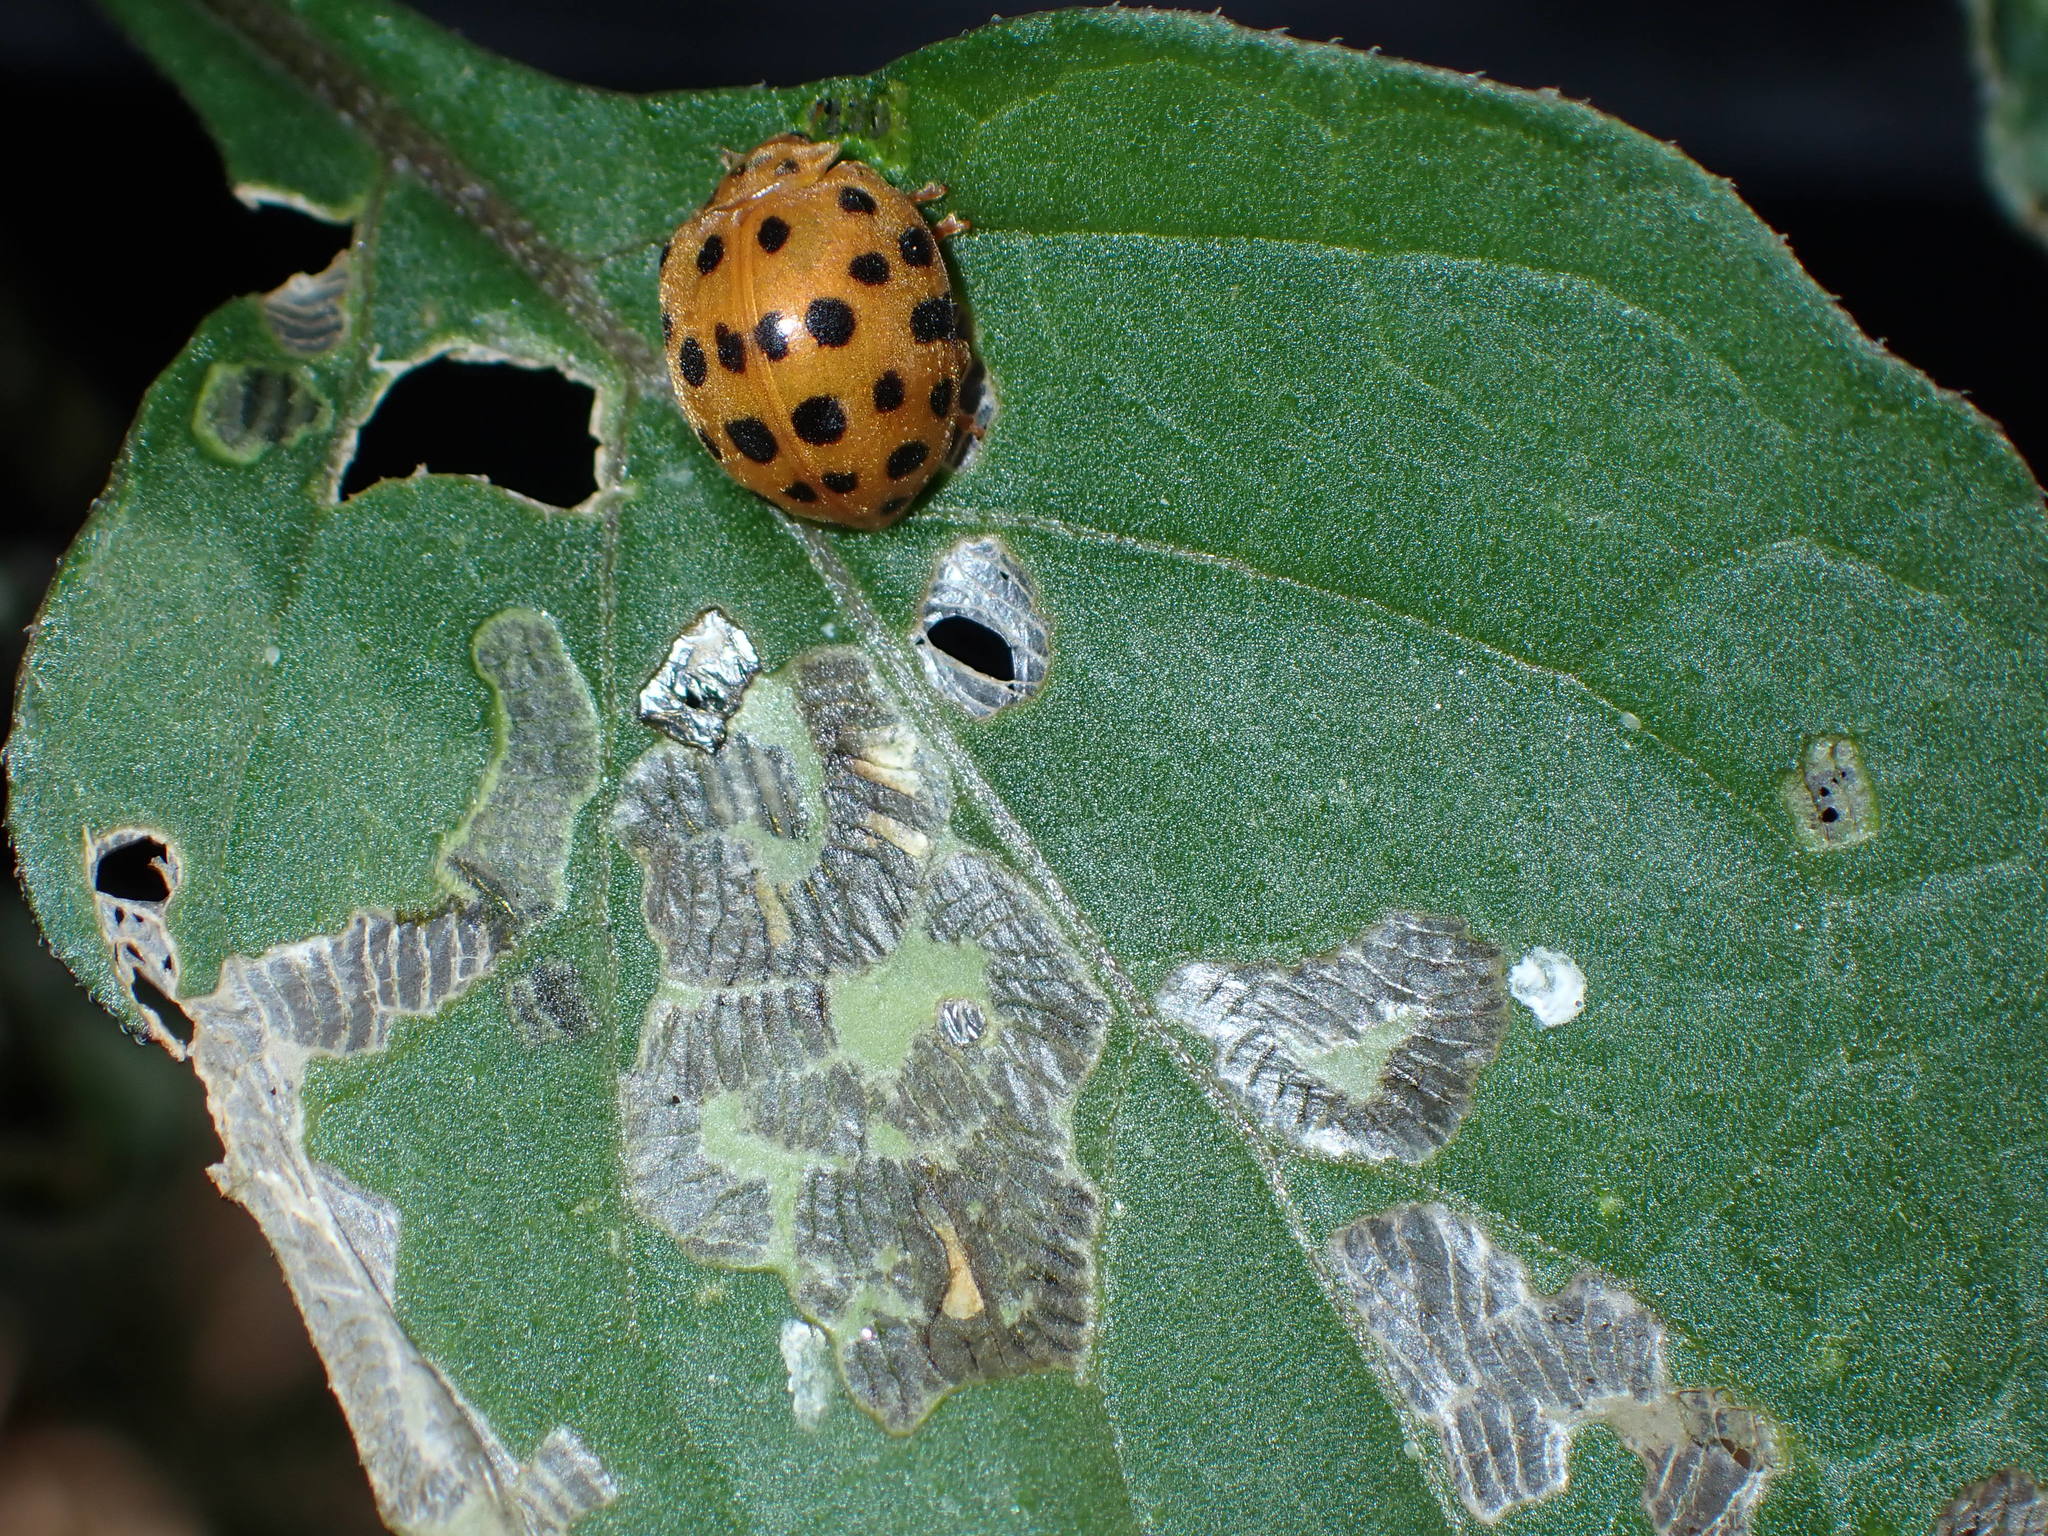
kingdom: Animalia
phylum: Arthropoda
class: Insecta
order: Coleoptera
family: Coccinellidae
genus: Henosepilachna
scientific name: Henosepilachna vigintioctopunctata
